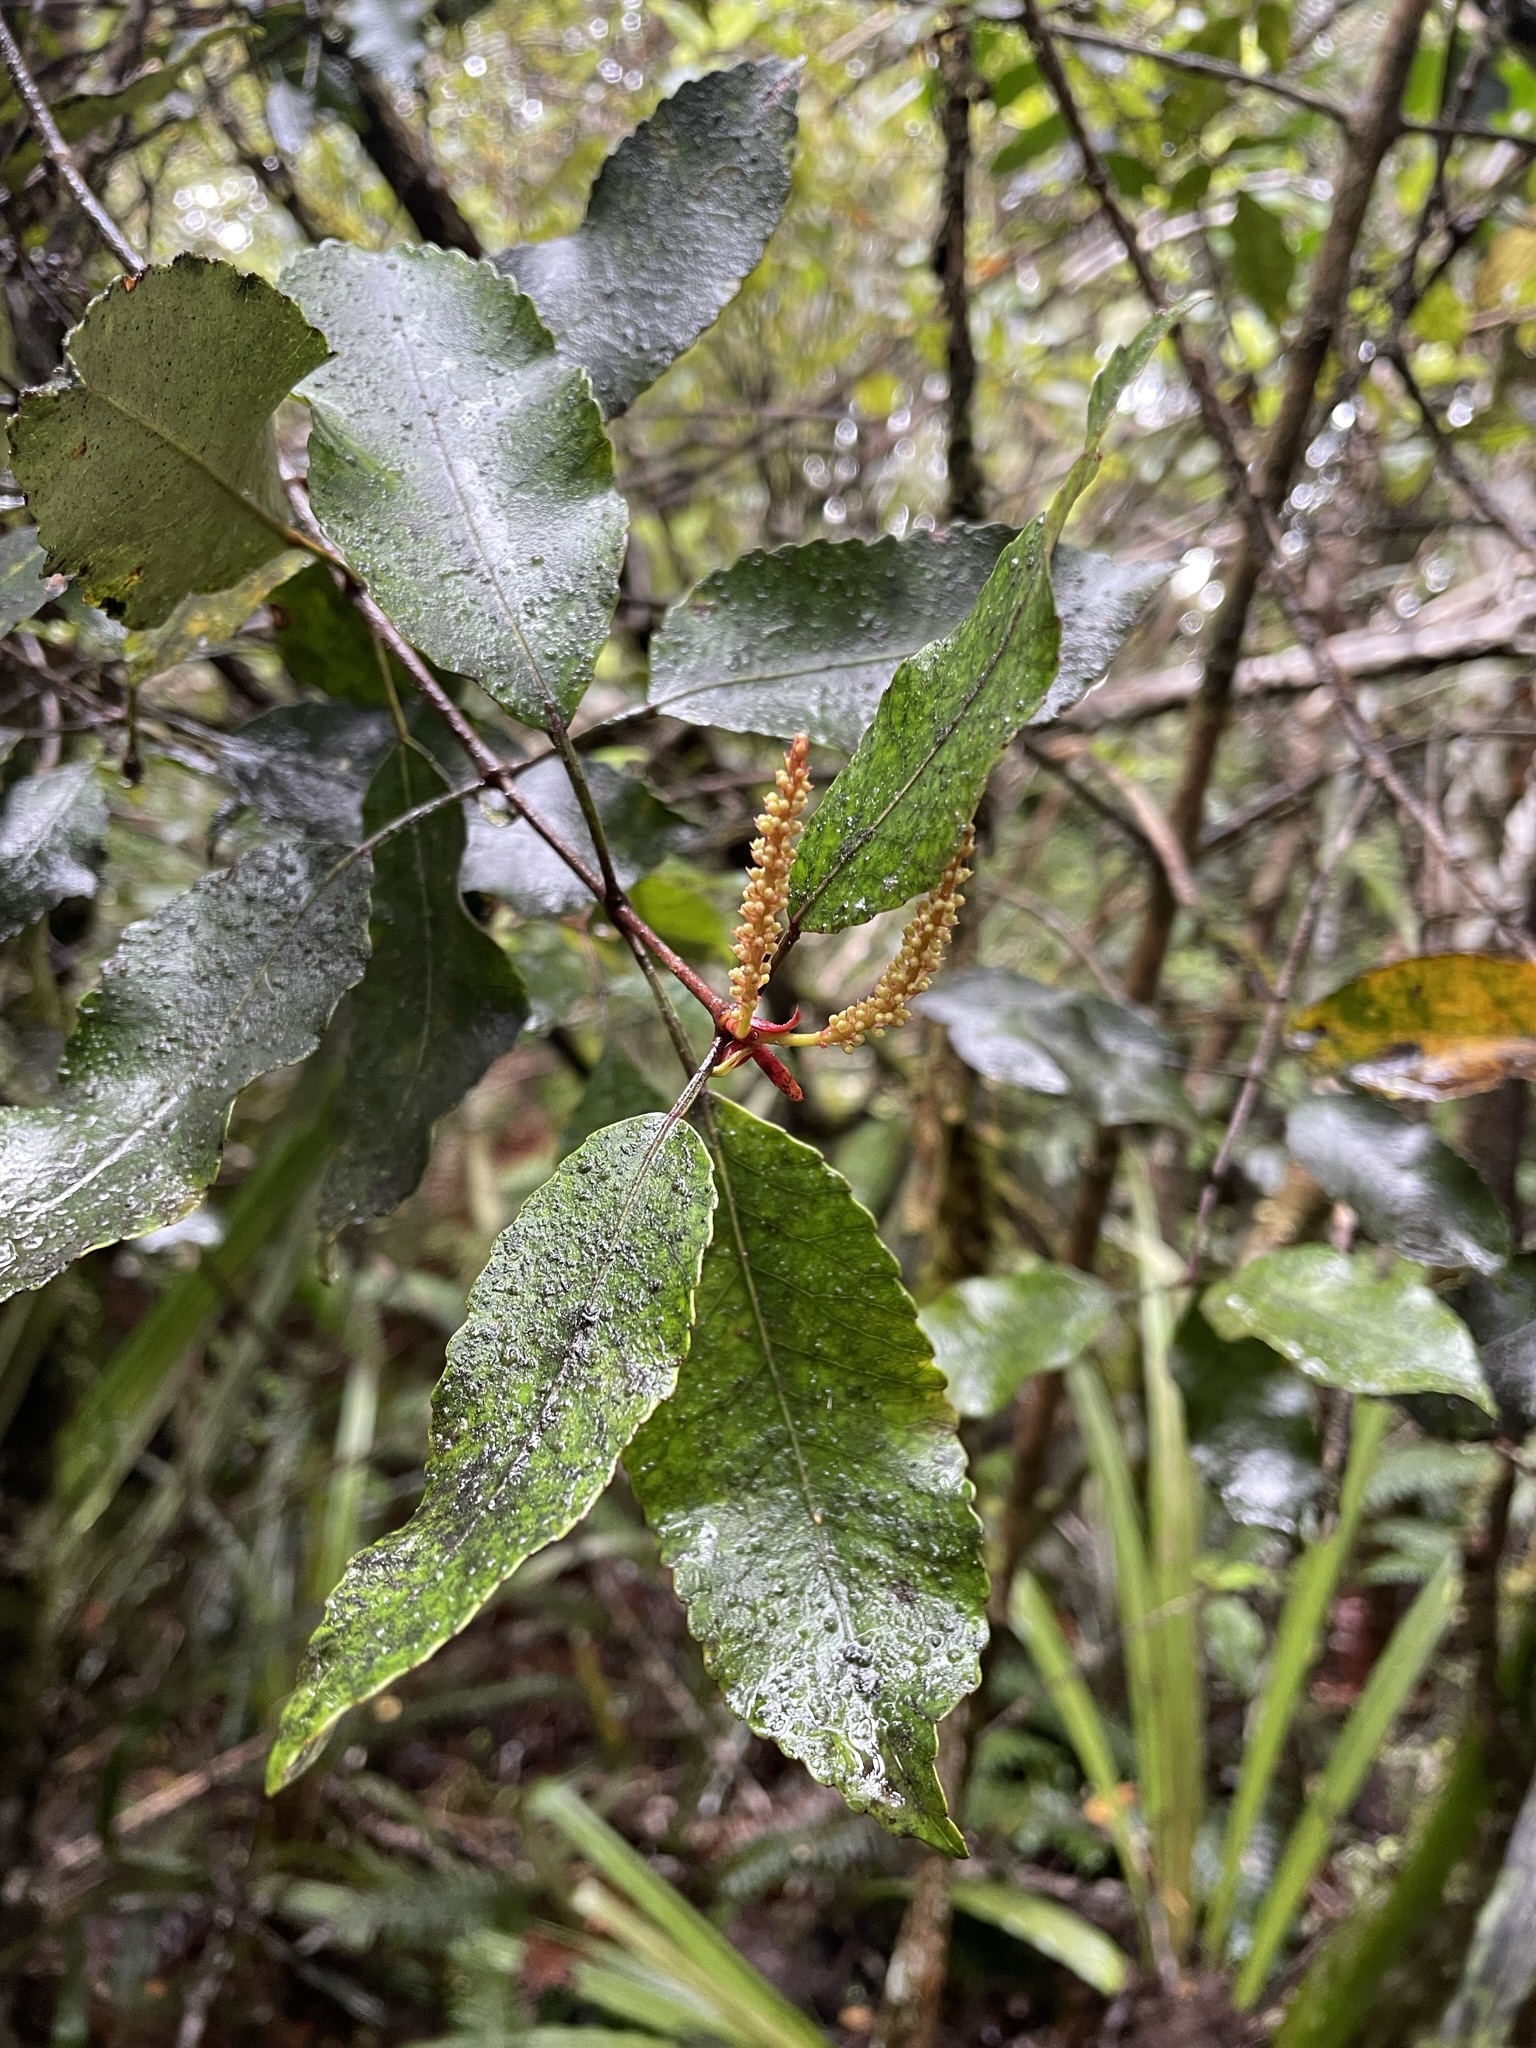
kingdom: Plantae
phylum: Tracheophyta
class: Magnoliopsida
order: Oxalidales
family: Cunoniaceae
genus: Pterophylla
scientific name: Pterophylla racemosa
